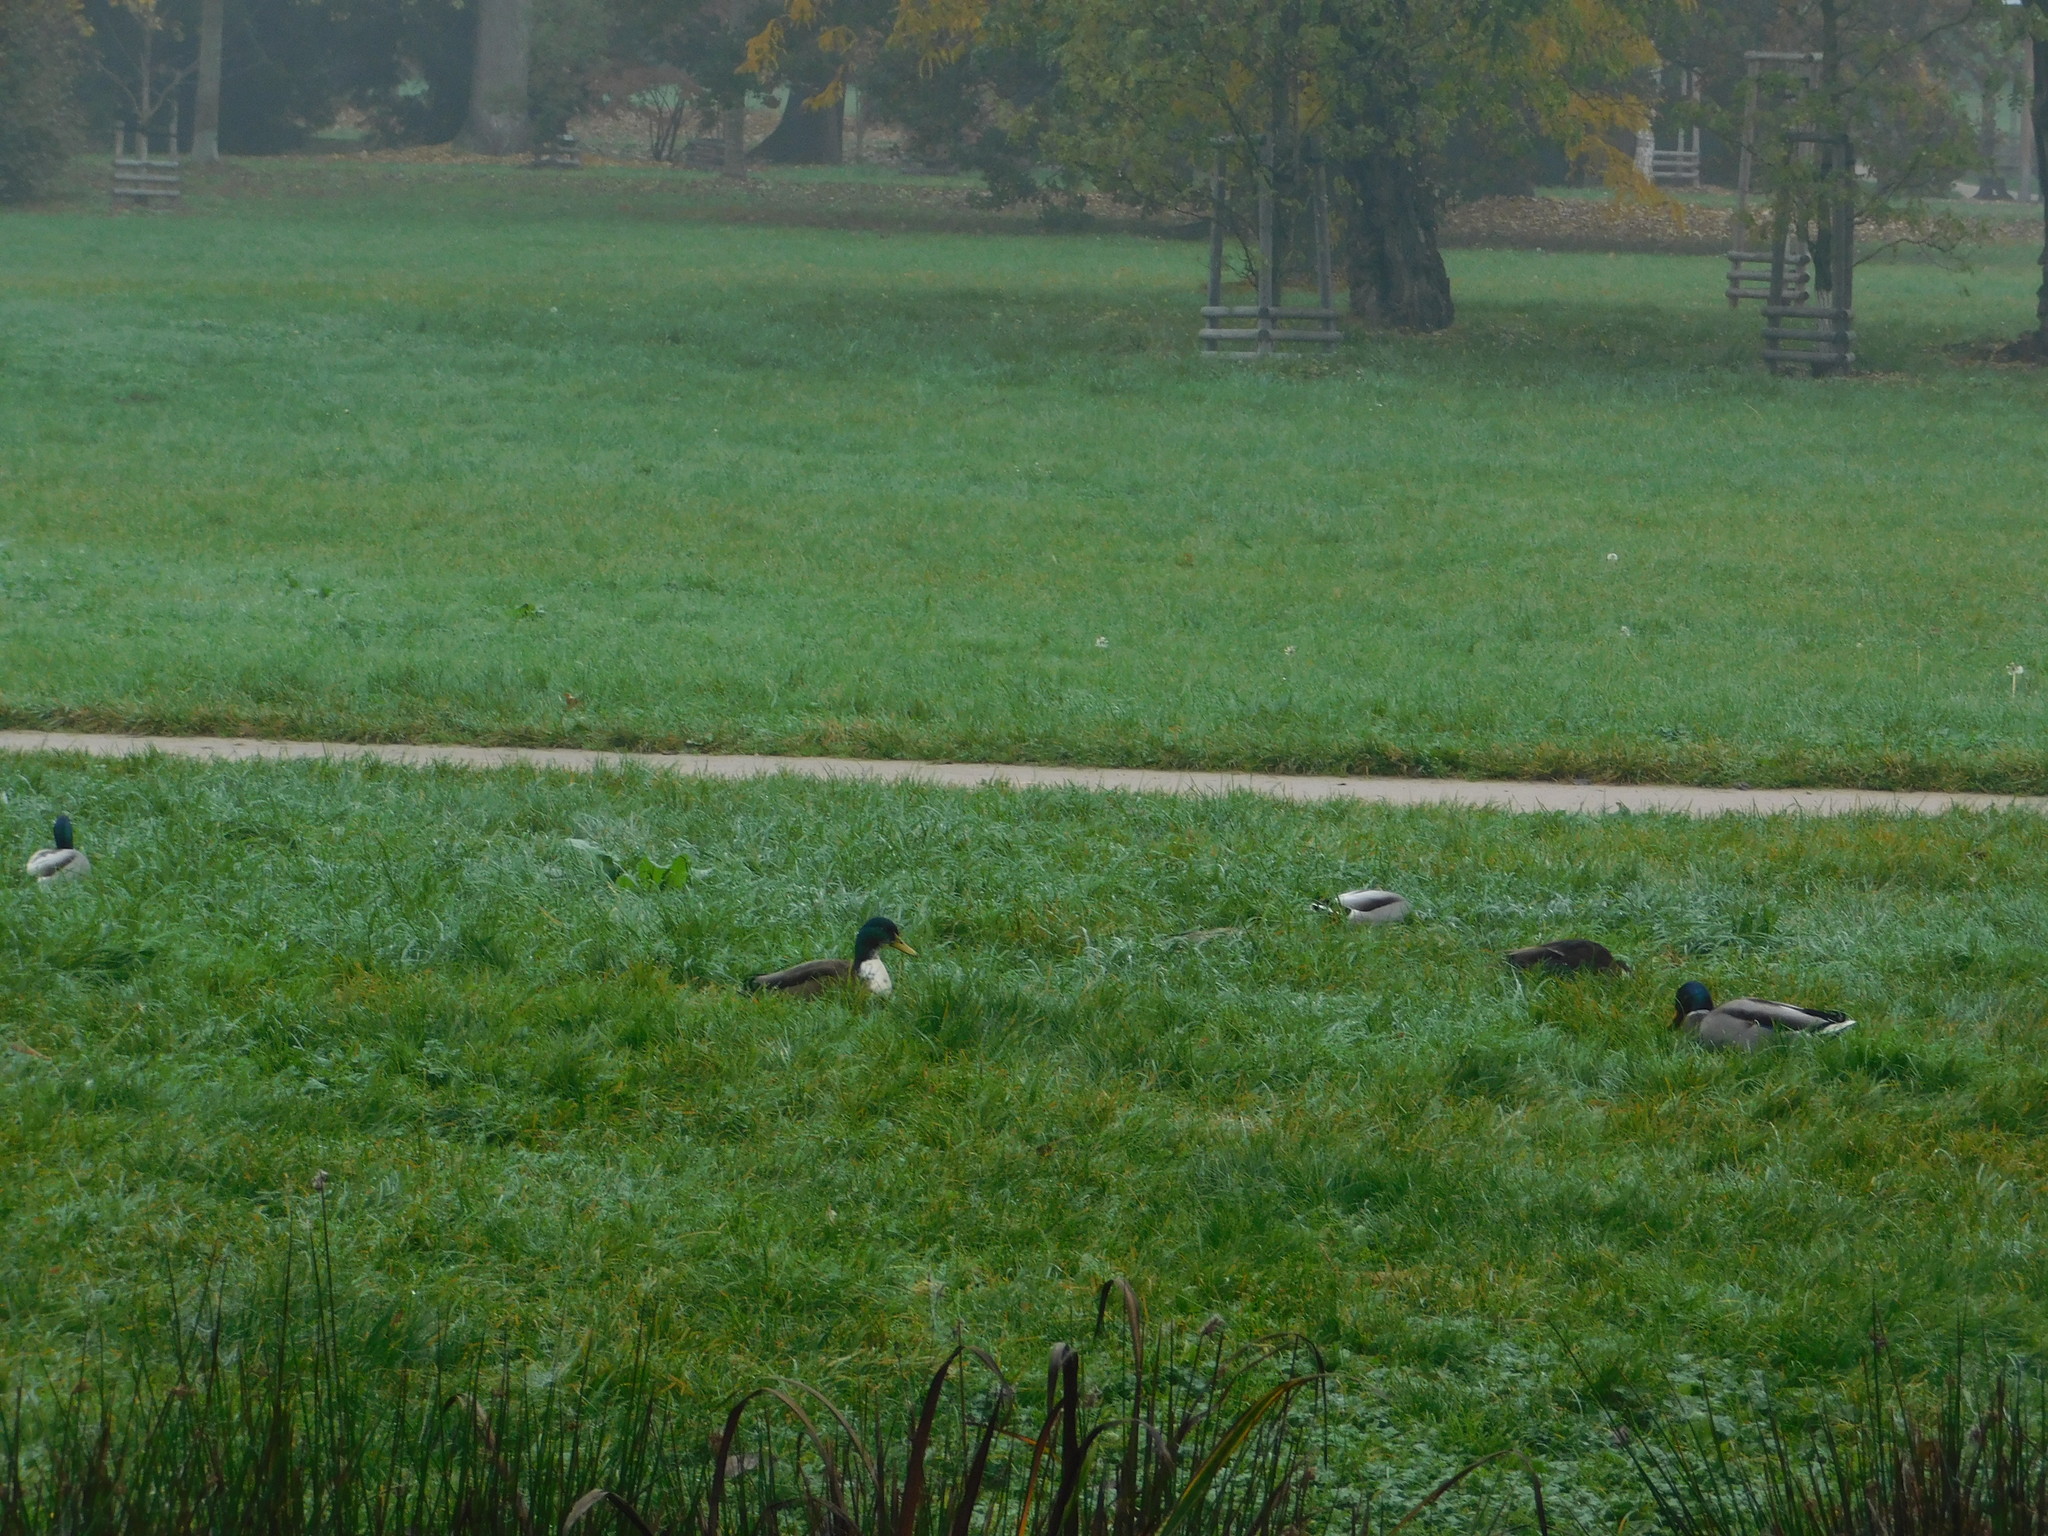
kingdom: Animalia
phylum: Chordata
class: Aves
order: Anseriformes
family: Anatidae
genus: Anas
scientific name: Anas platyrhynchos
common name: Mallard
